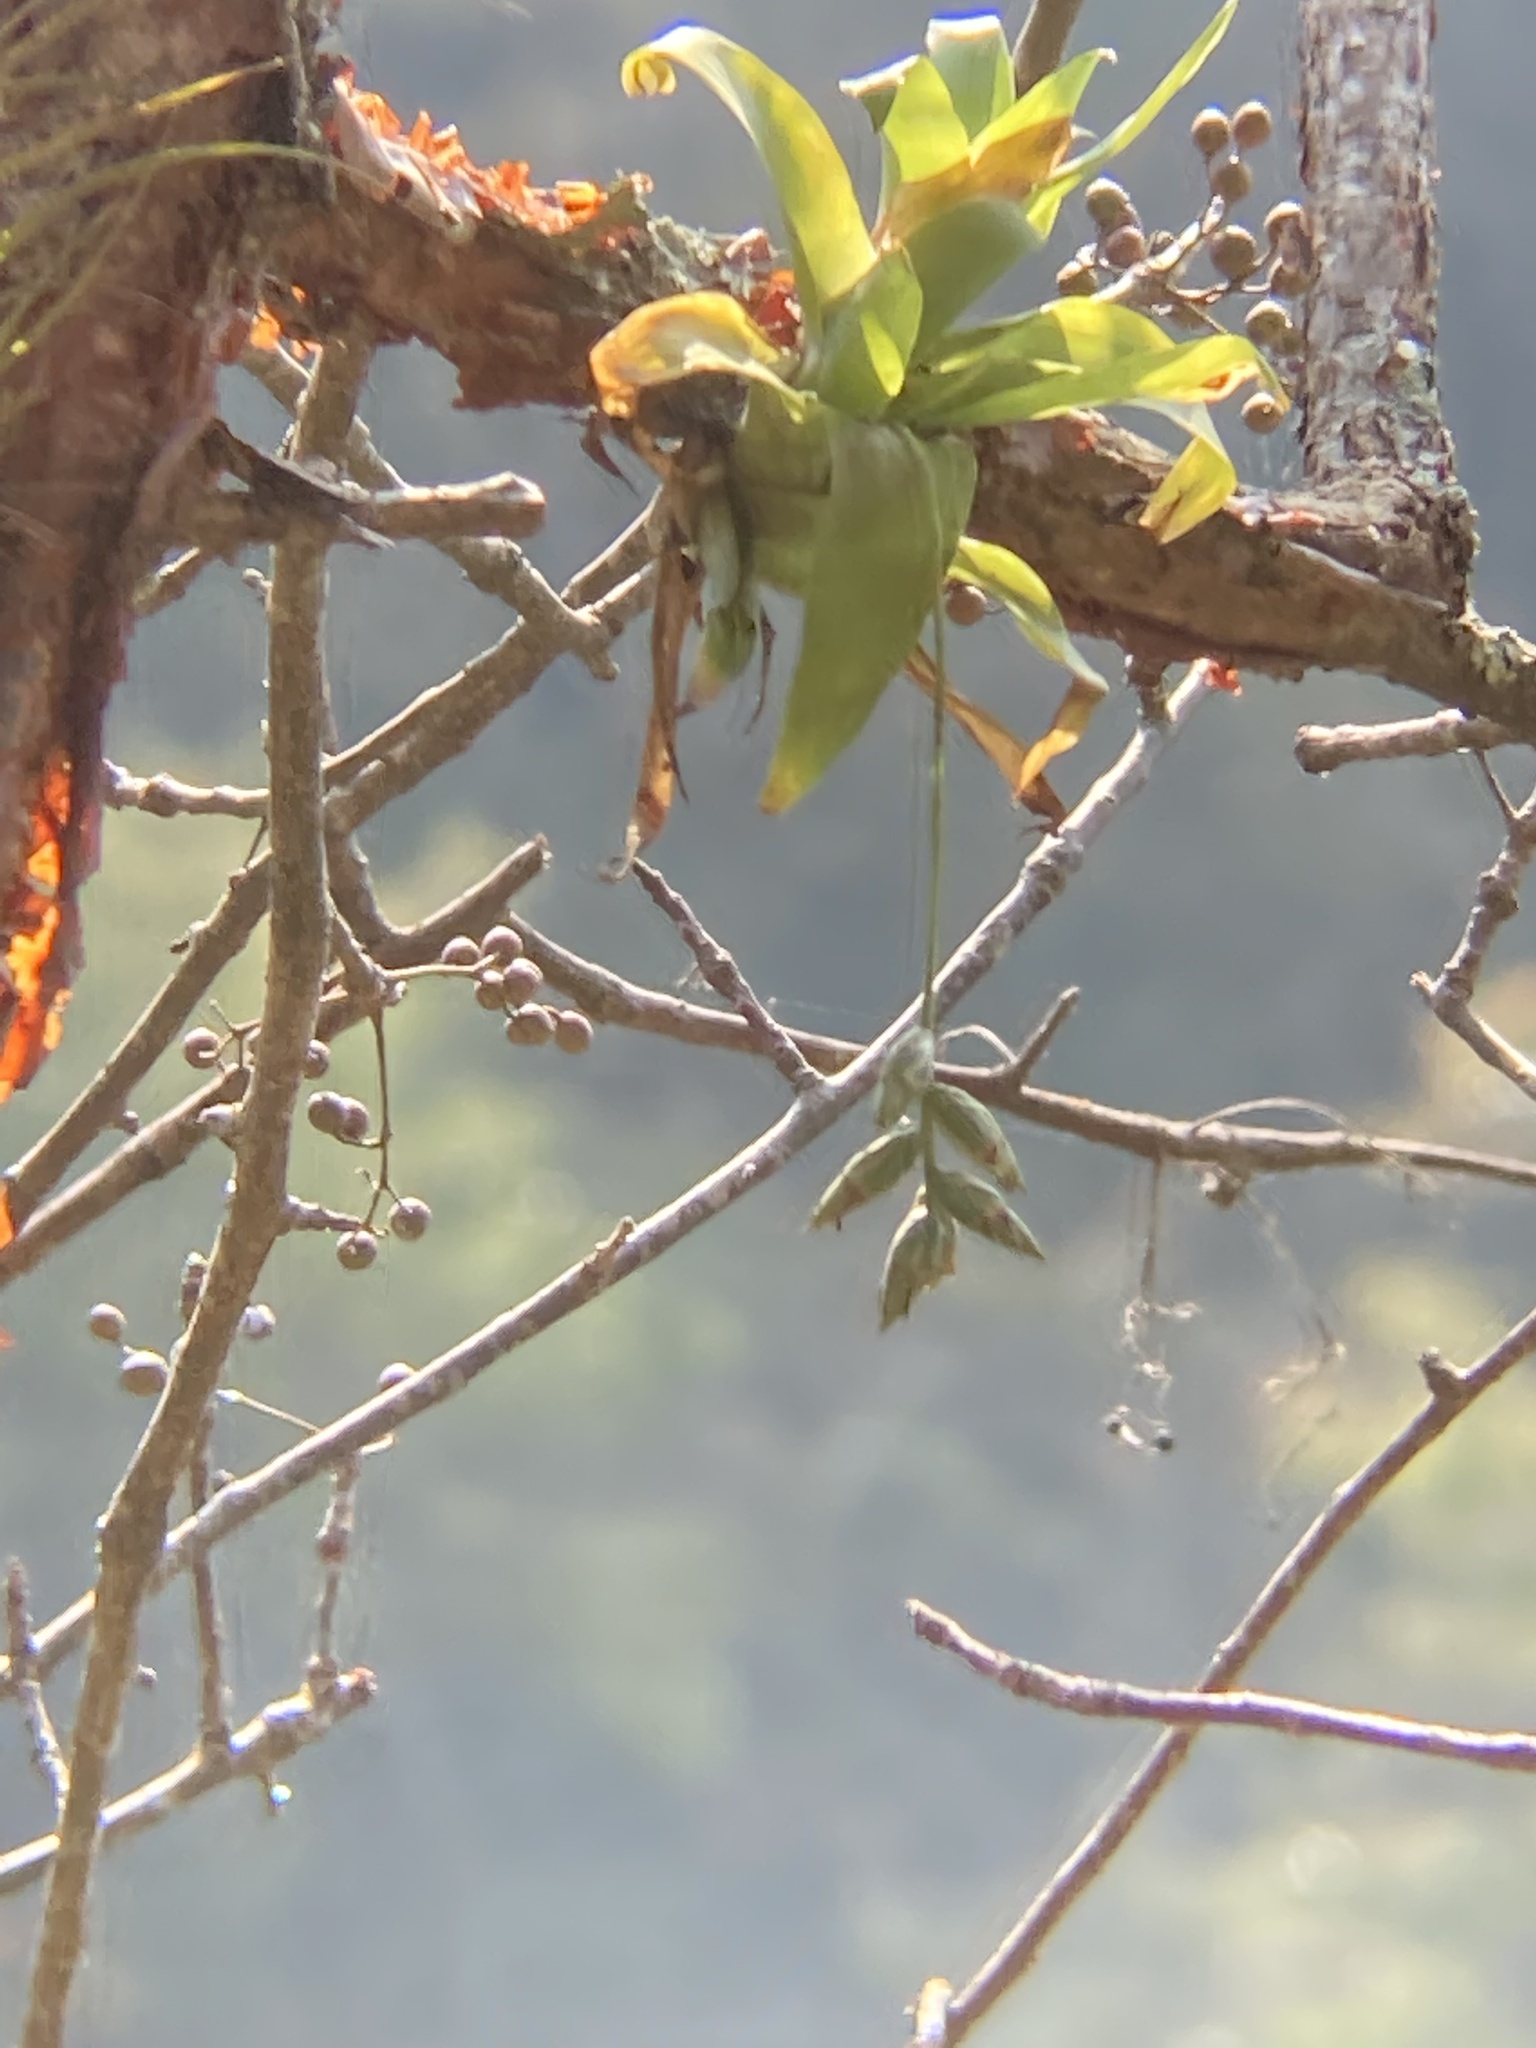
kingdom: Plantae
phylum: Tracheophyta
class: Liliopsida
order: Poales
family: Bromeliaceae
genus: Catopsis
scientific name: Catopsis nutans
